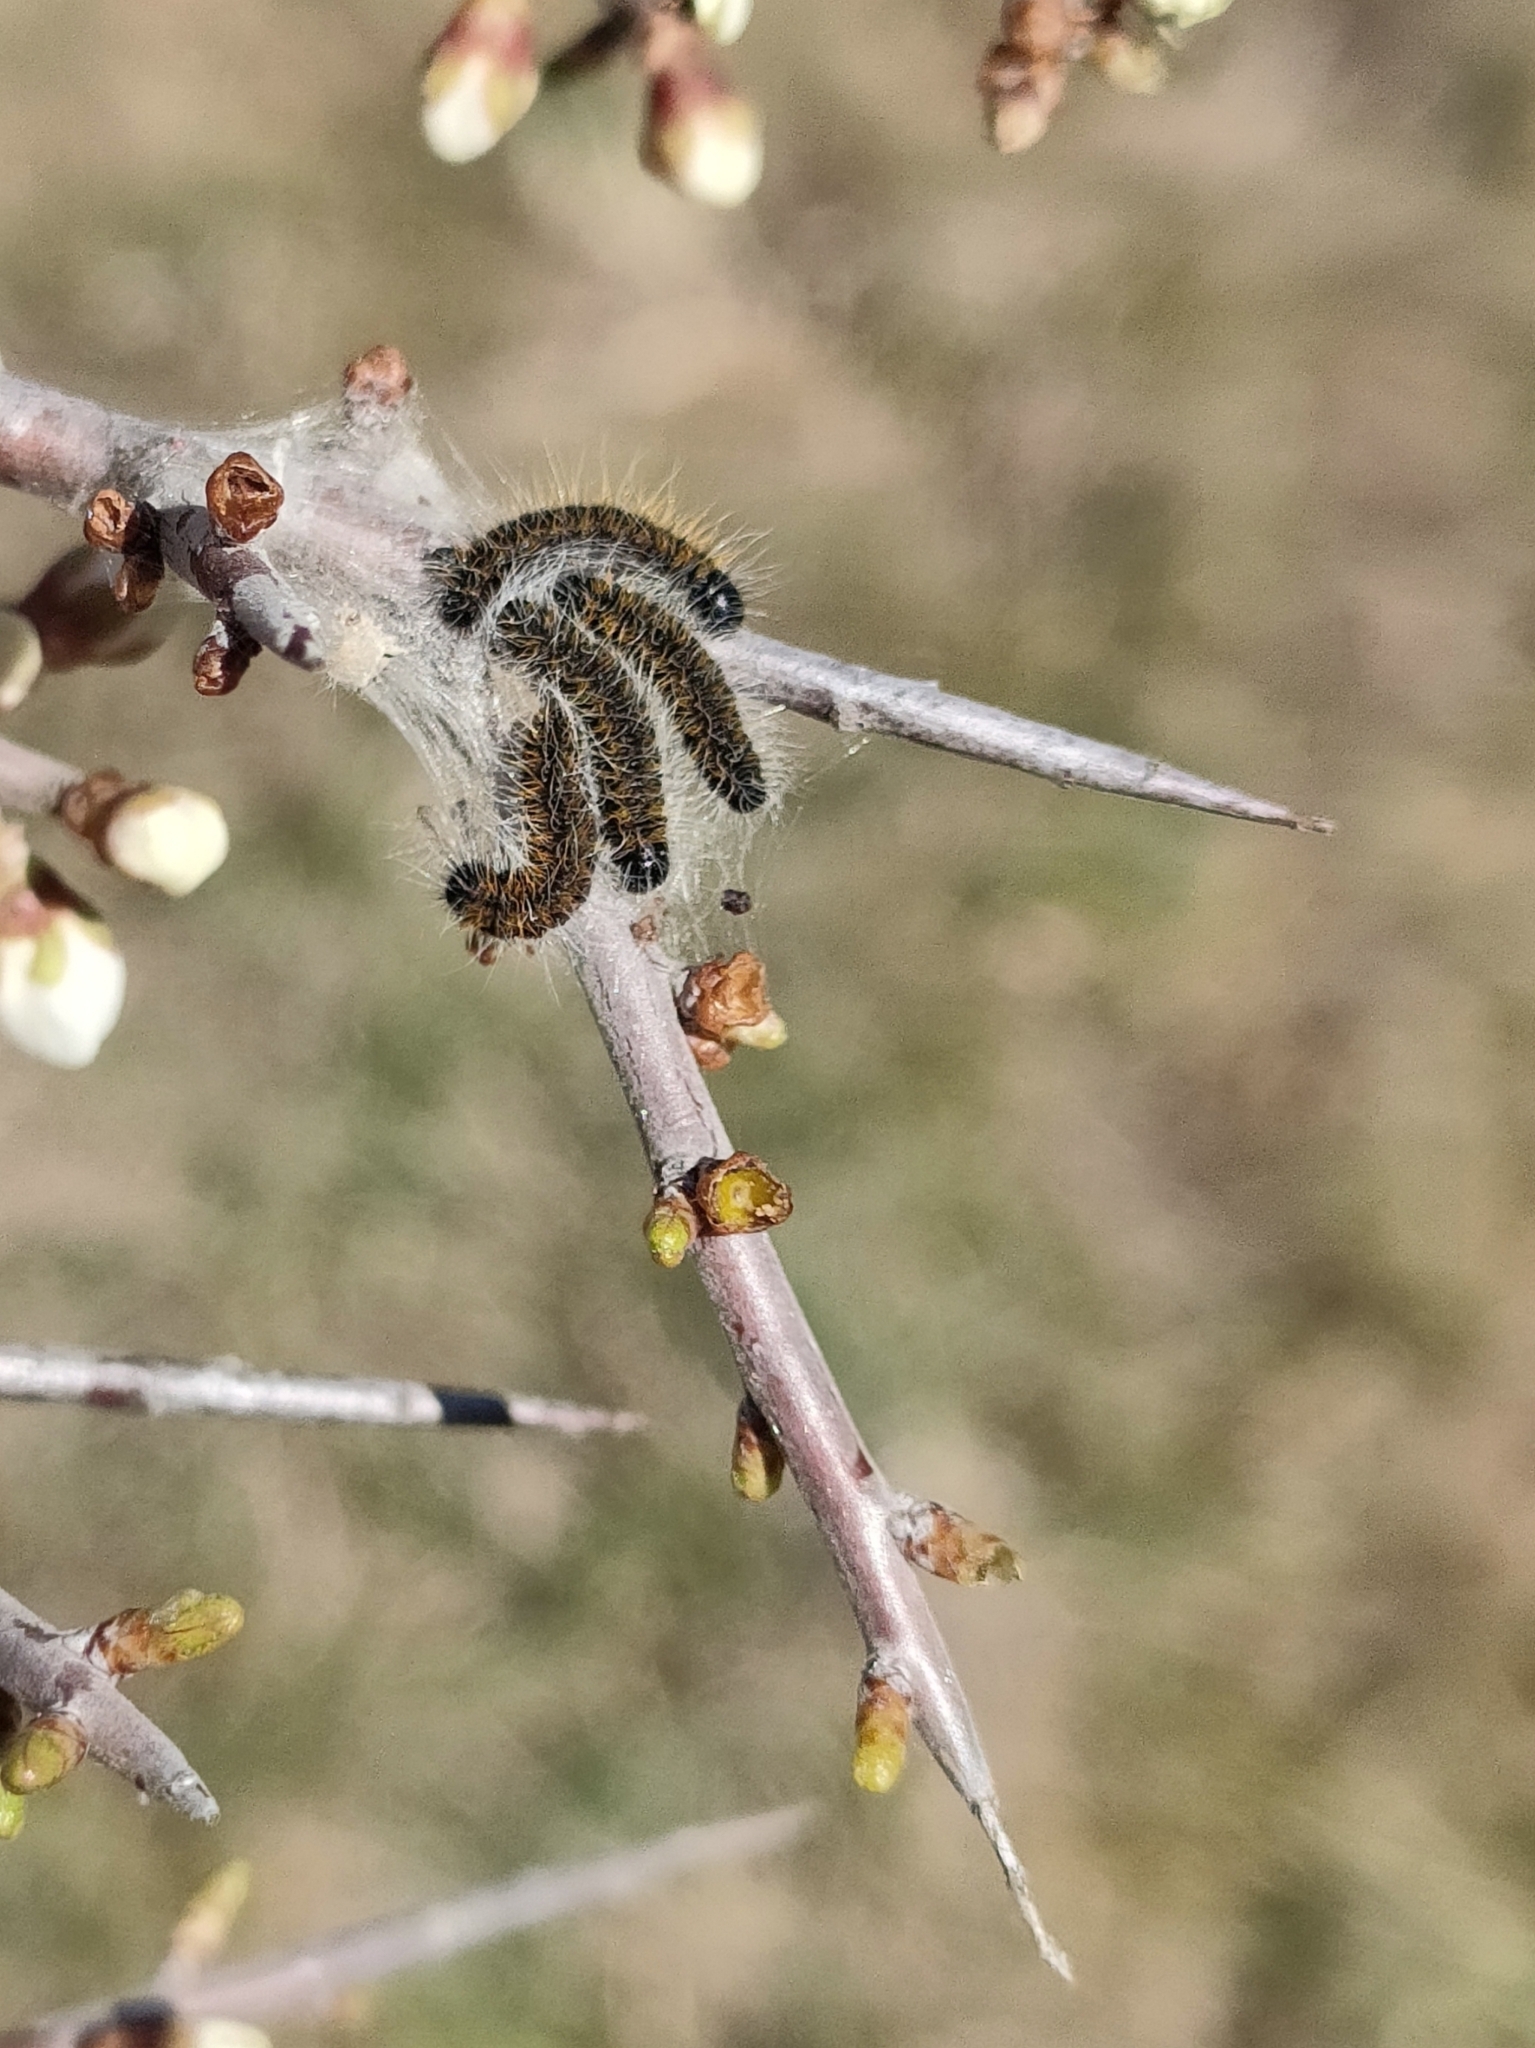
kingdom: Animalia
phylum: Arthropoda
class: Insecta
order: Lepidoptera
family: Pieridae
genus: Aporia
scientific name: Aporia crataegi
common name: Black-veined white
